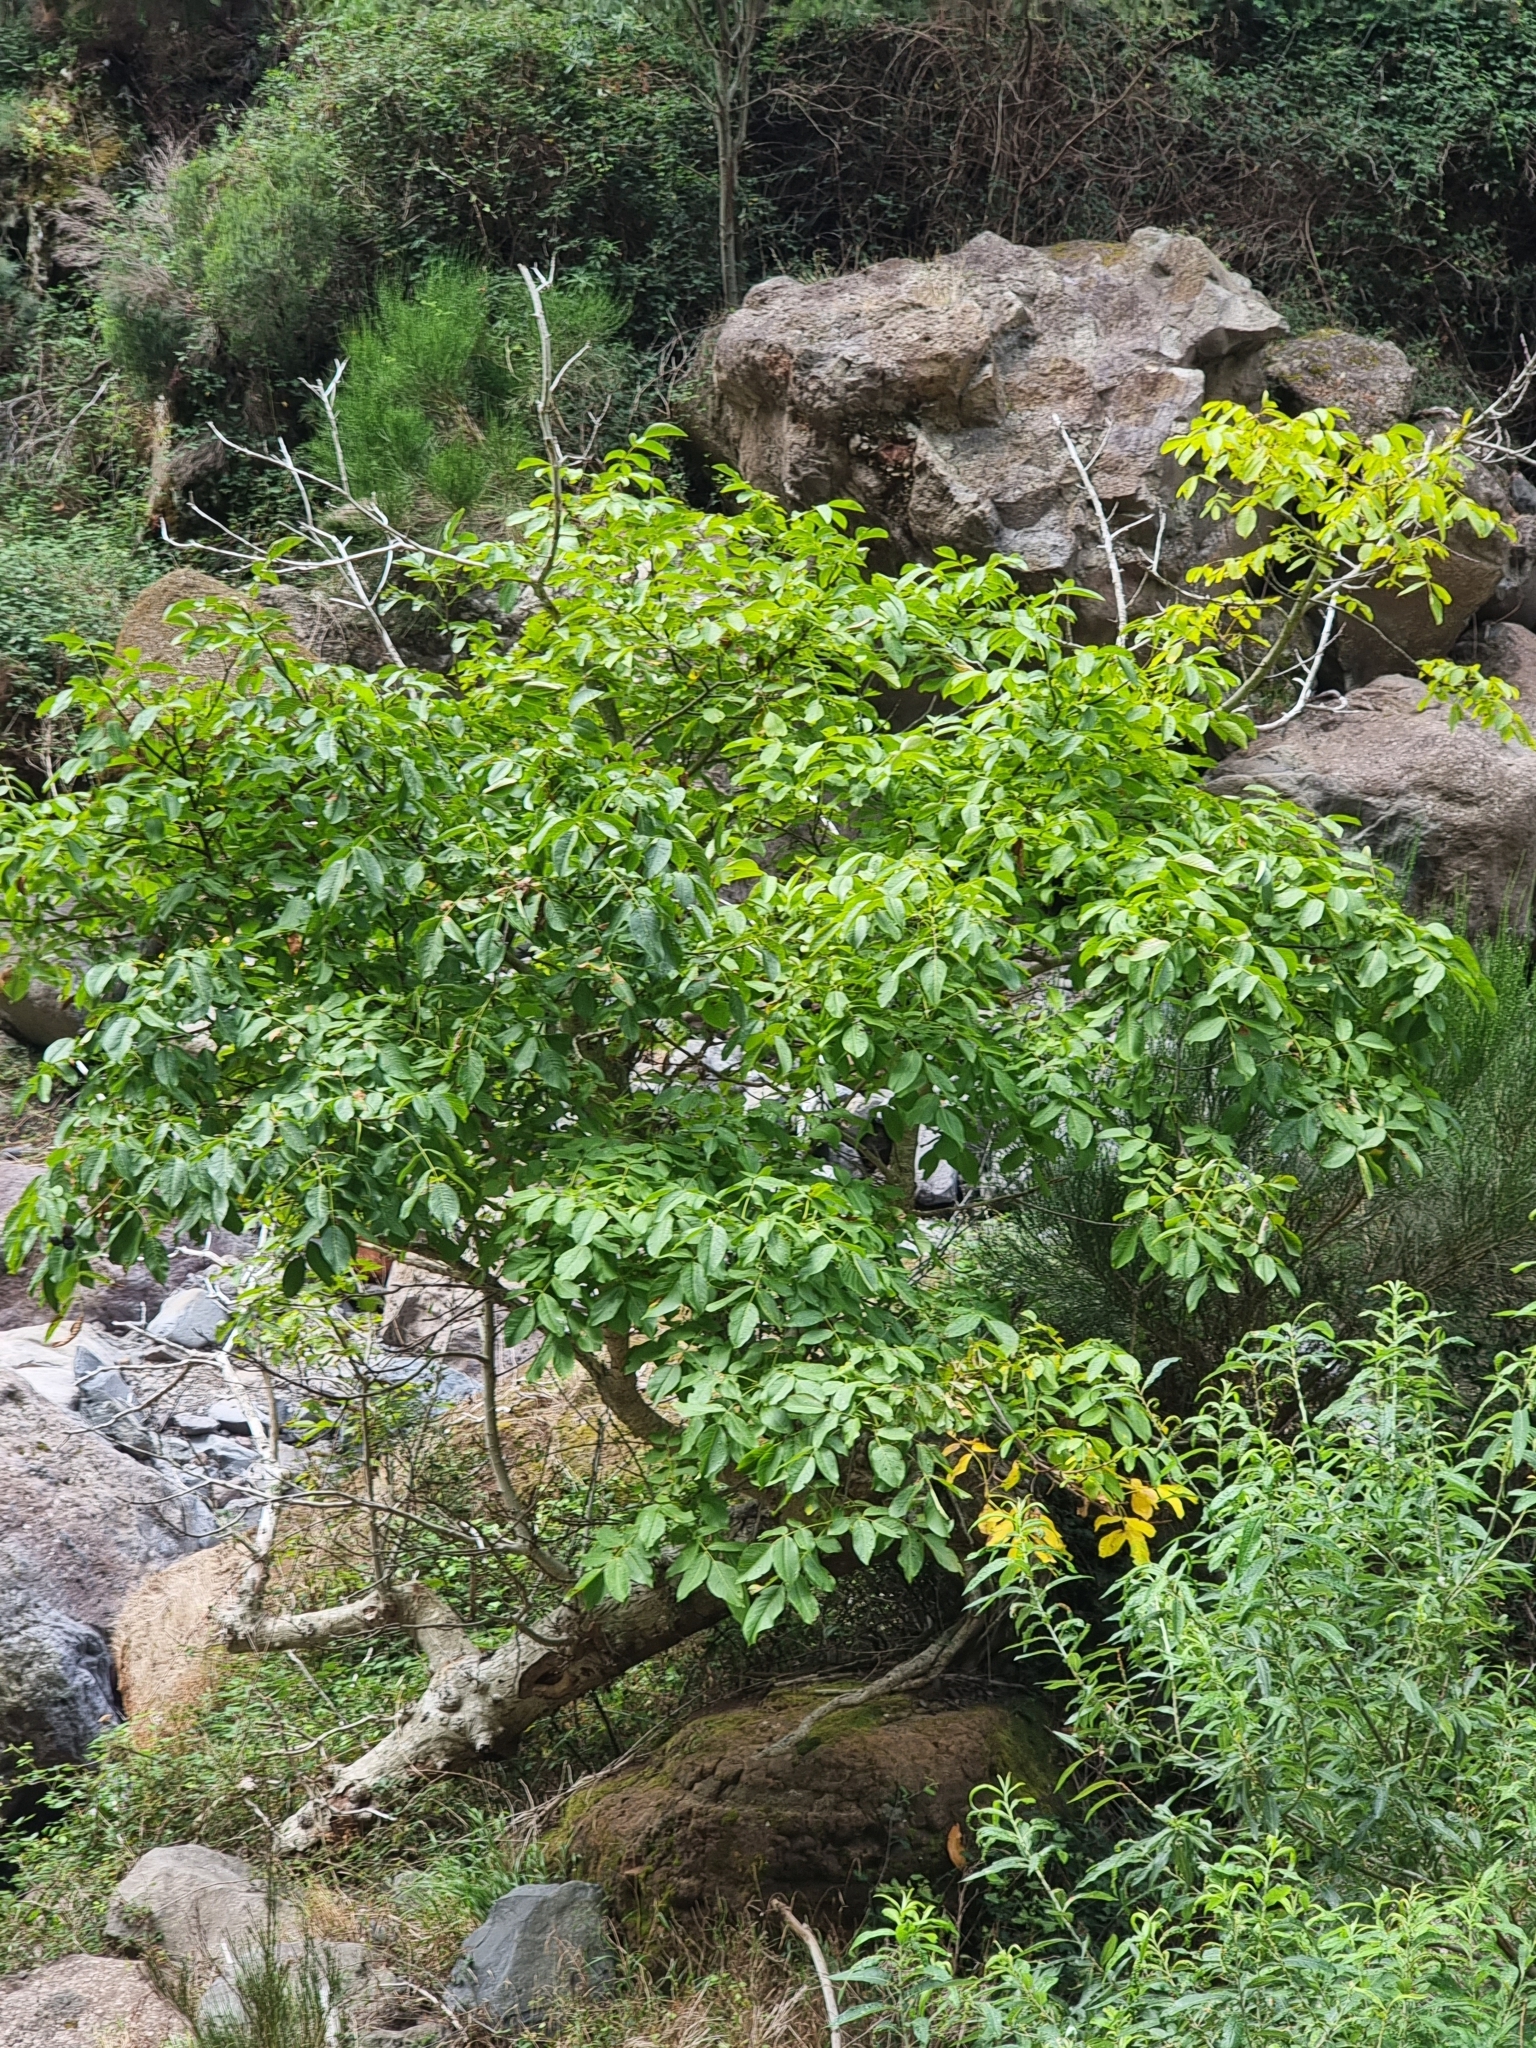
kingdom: Plantae
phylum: Tracheophyta
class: Magnoliopsida
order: Fagales
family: Juglandaceae
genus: Juglans
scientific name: Juglans regia
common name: Walnut
